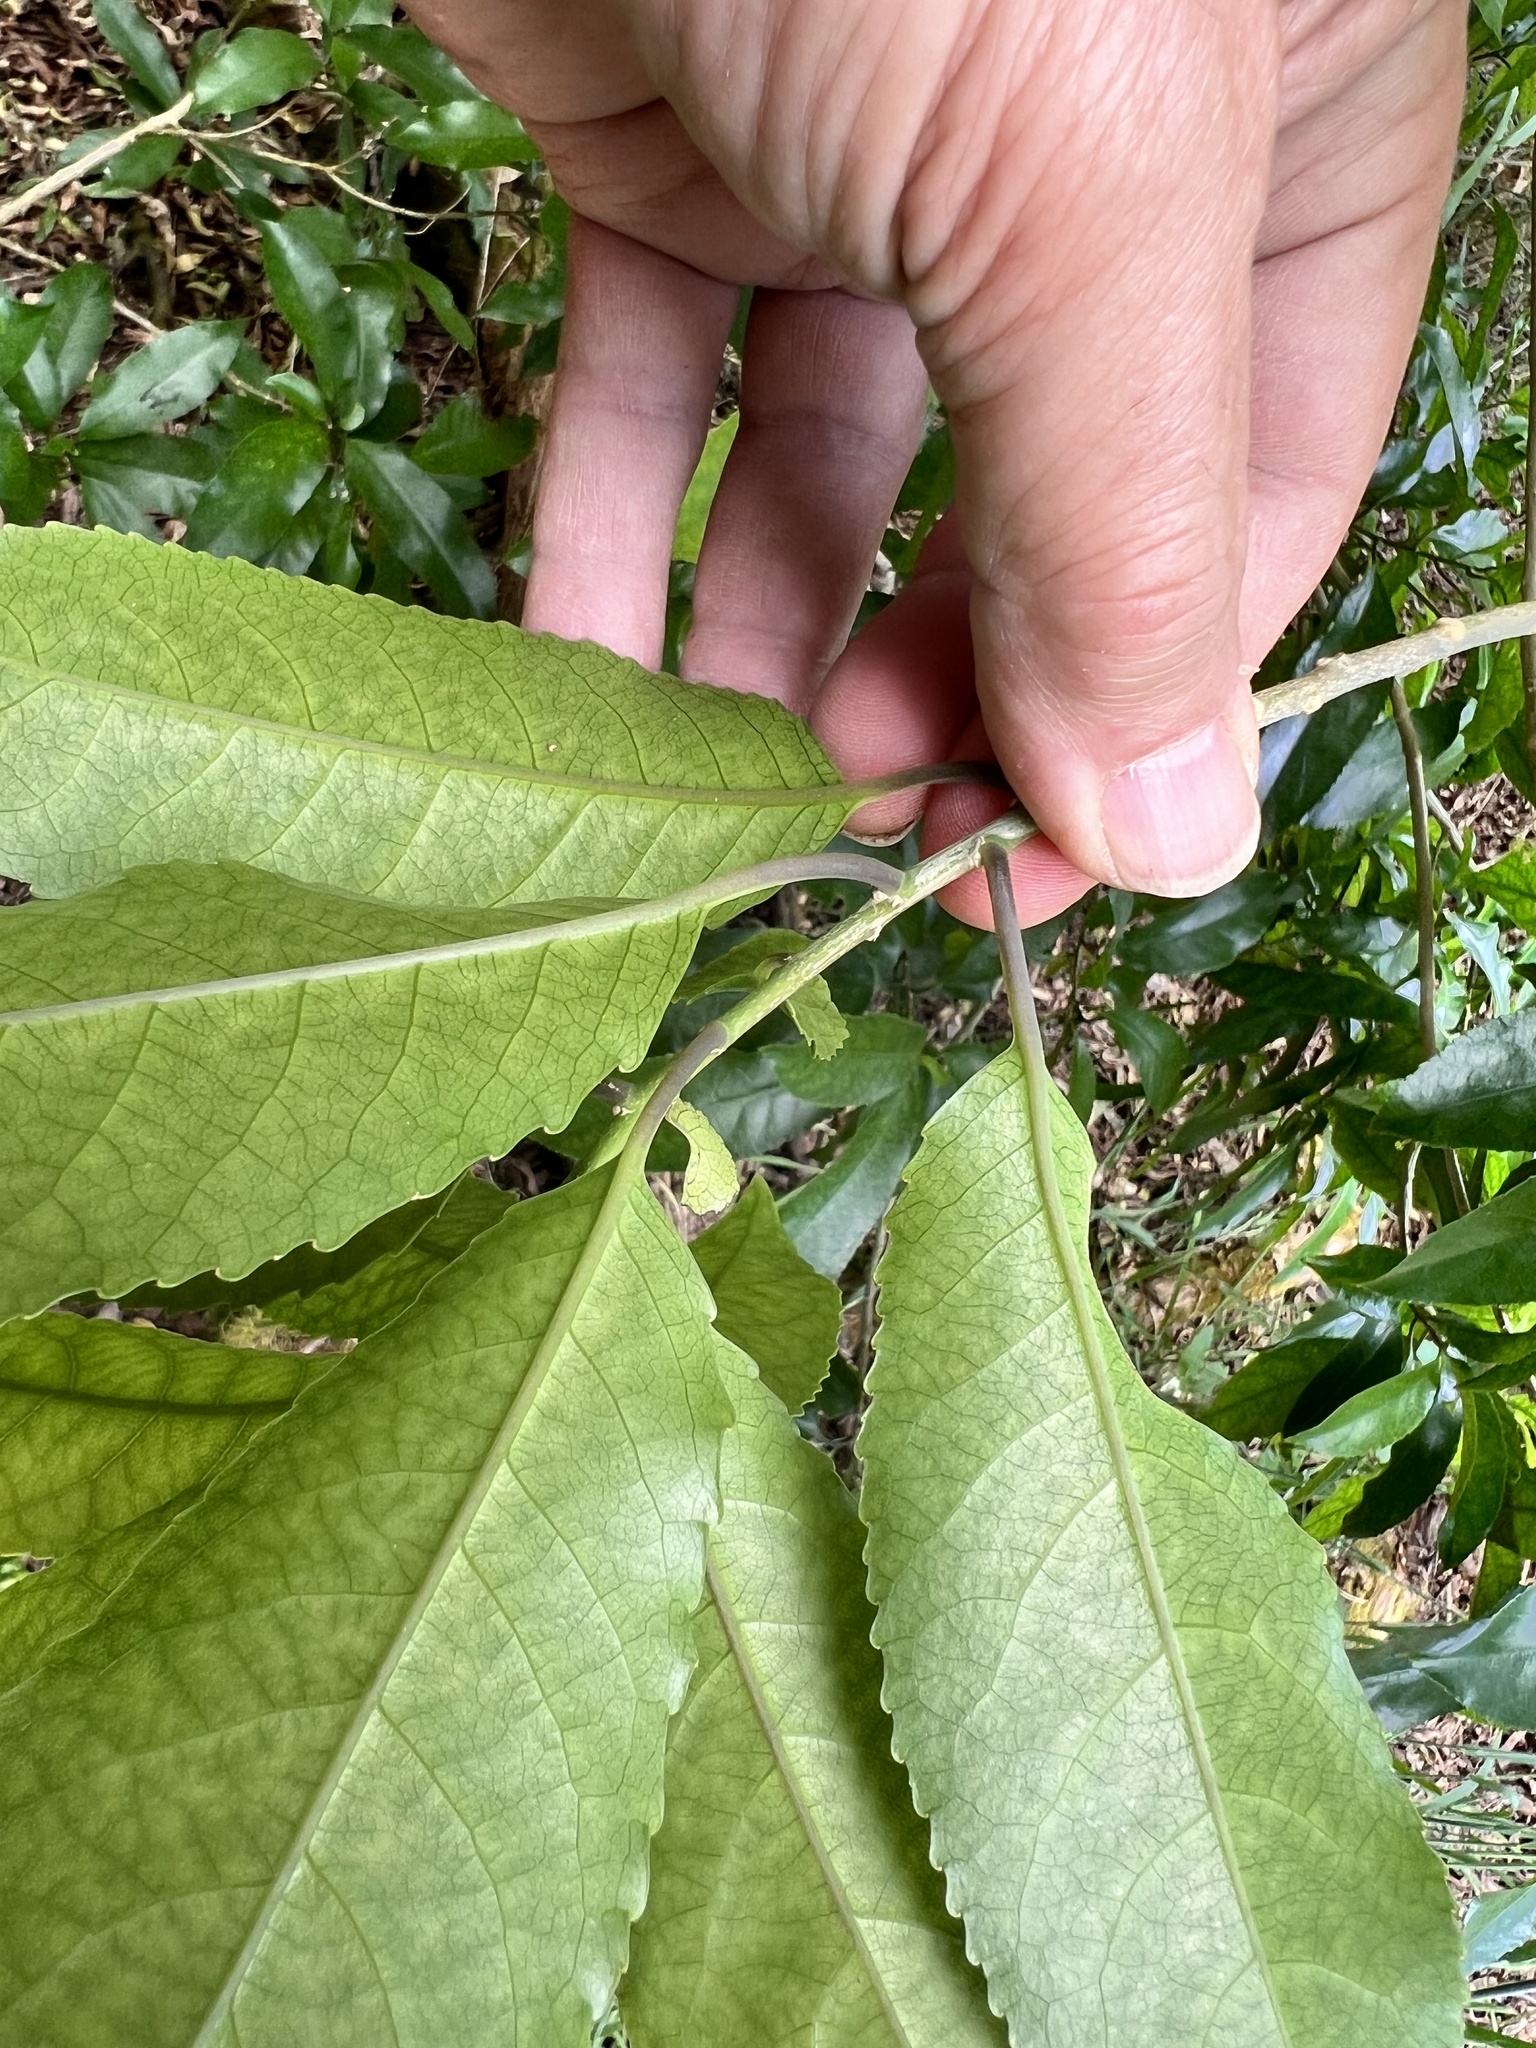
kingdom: Plantae
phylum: Tracheophyta
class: Magnoliopsida
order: Malpighiales
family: Violaceae
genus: Melicytus
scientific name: Melicytus ramiflorus
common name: Mahoe
